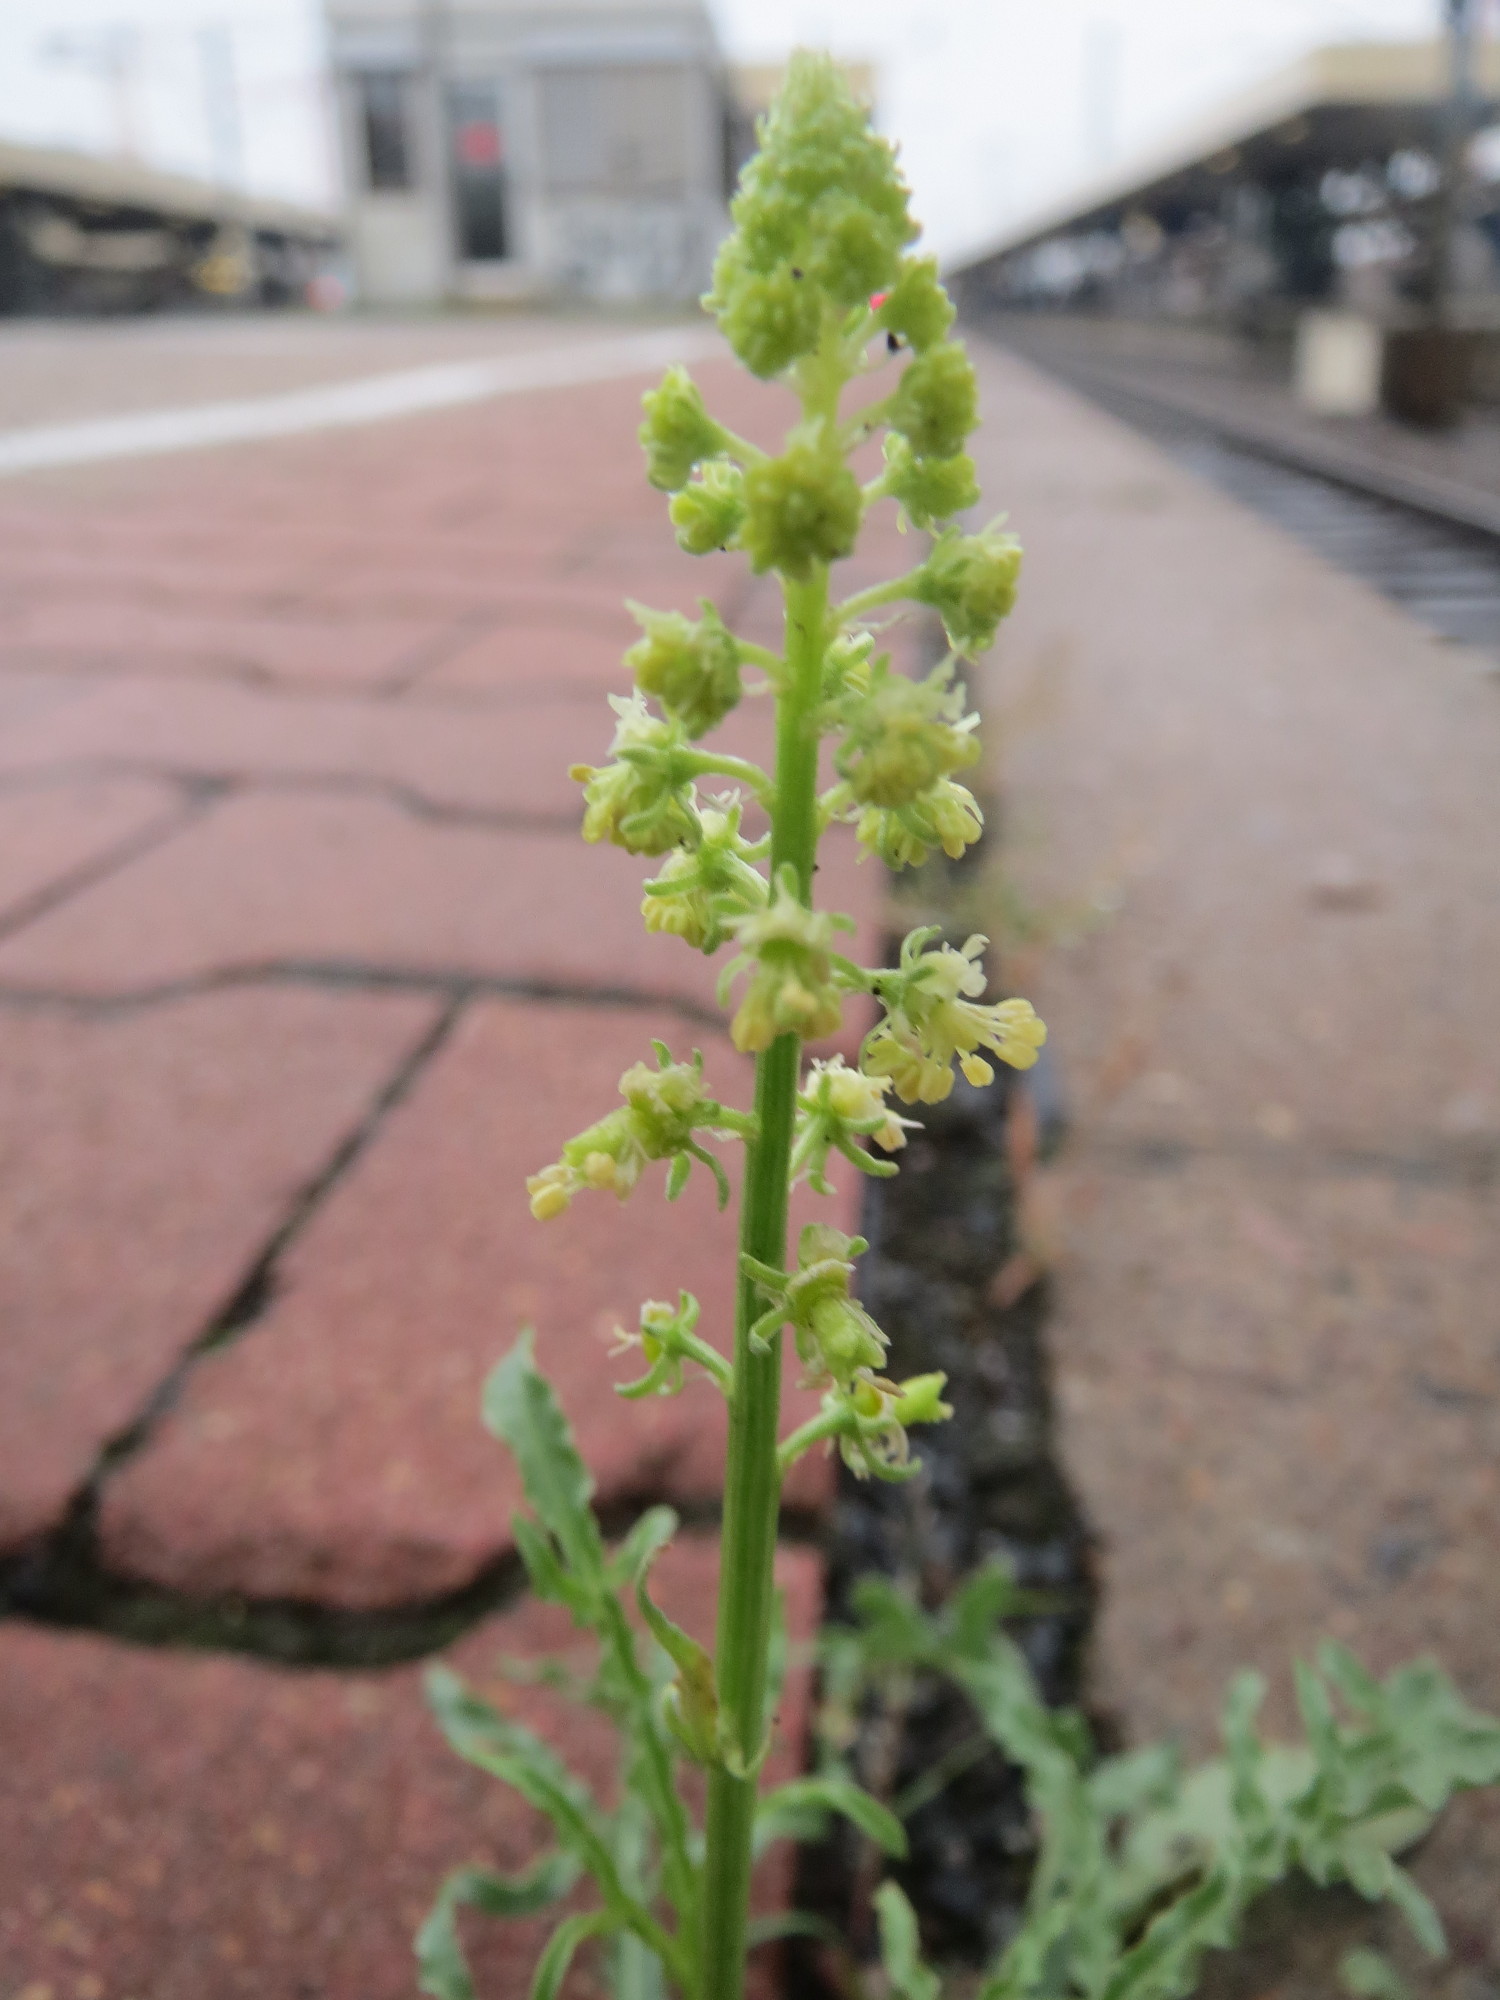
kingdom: Plantae
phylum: Tracheophyta
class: Magnoliopsida
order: Brassicales
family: Resedaceae
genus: Reseda
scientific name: Reseda lutea
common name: Wild mignonette
